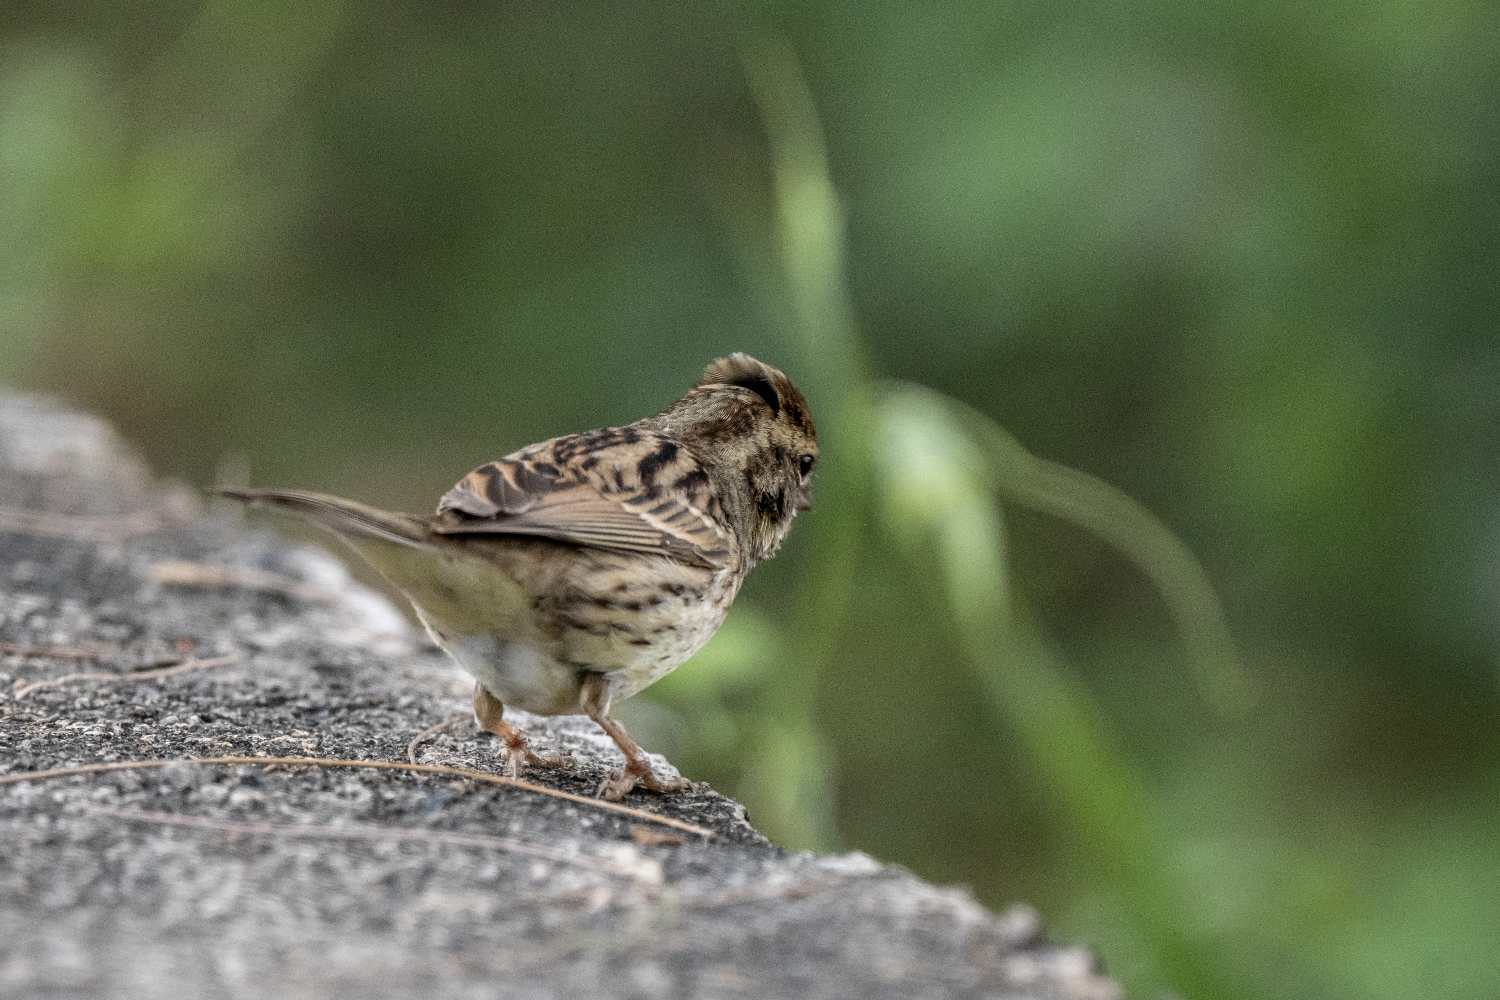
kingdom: Animalia
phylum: Chordata
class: Aves
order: Passeriformes
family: Emberizidae
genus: Emberiza
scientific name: Emberiza spodocephala
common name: Black-faced bunting
